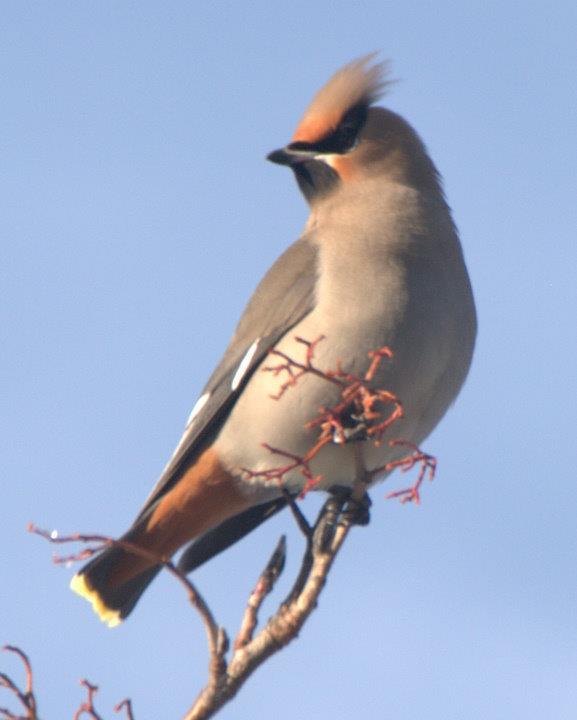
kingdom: Animalia
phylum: Chordata
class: Aves
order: Passeriformes
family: Bombycillidae
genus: Bombycilla
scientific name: Bombycilla garrulus
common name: Bohemian waxwing
